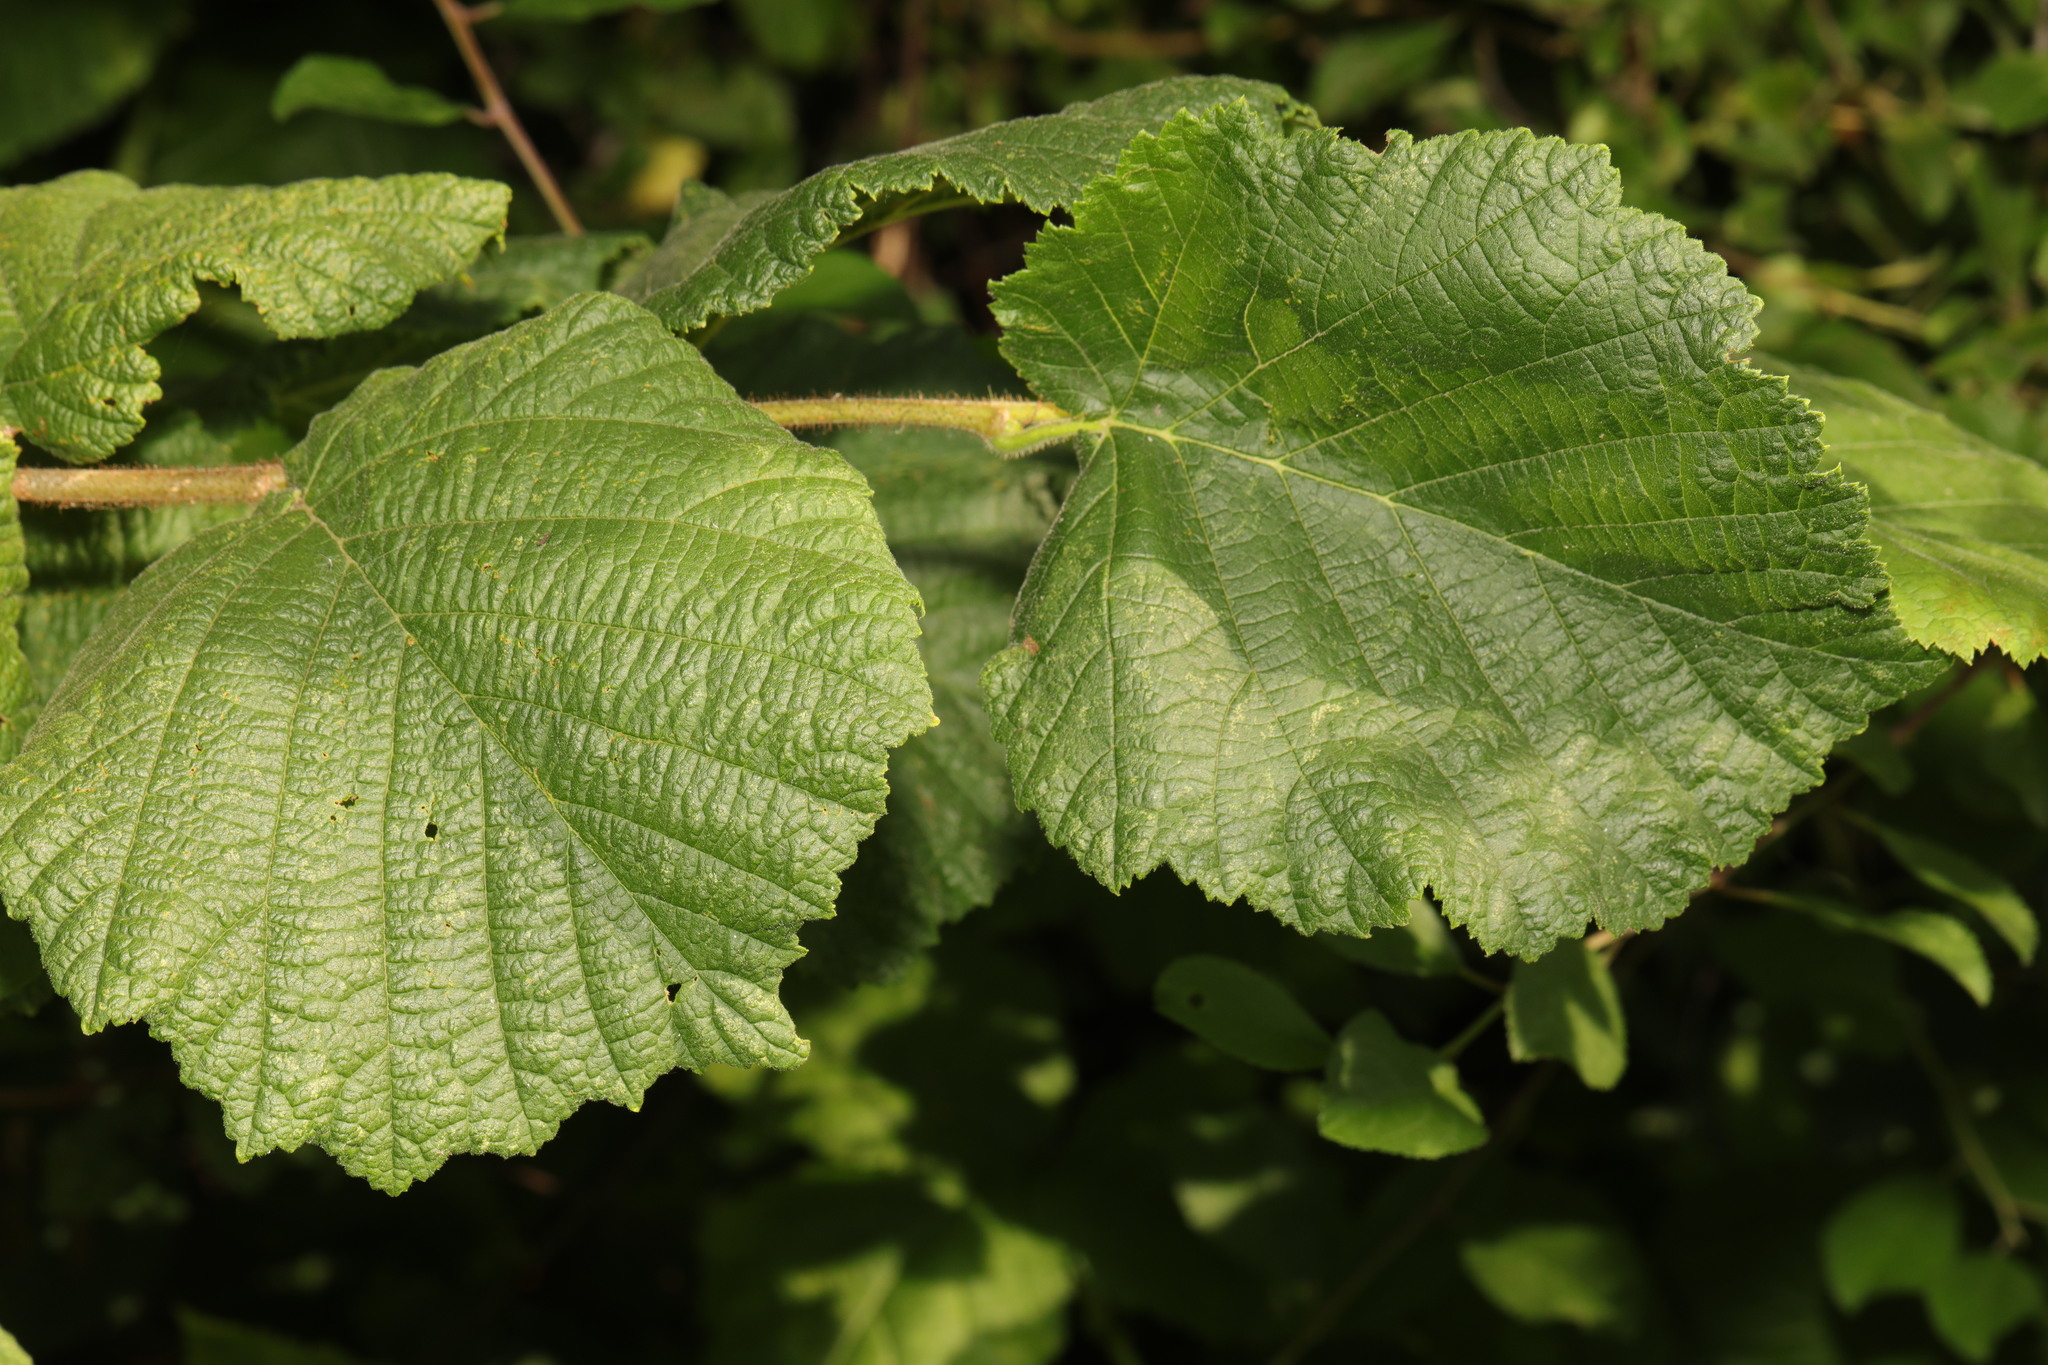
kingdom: Plantae
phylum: Tracheophyta
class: Magnoliopsida
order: Fagales
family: Betulaceae
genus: Corylus
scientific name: Corylus avellana
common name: European hazel
